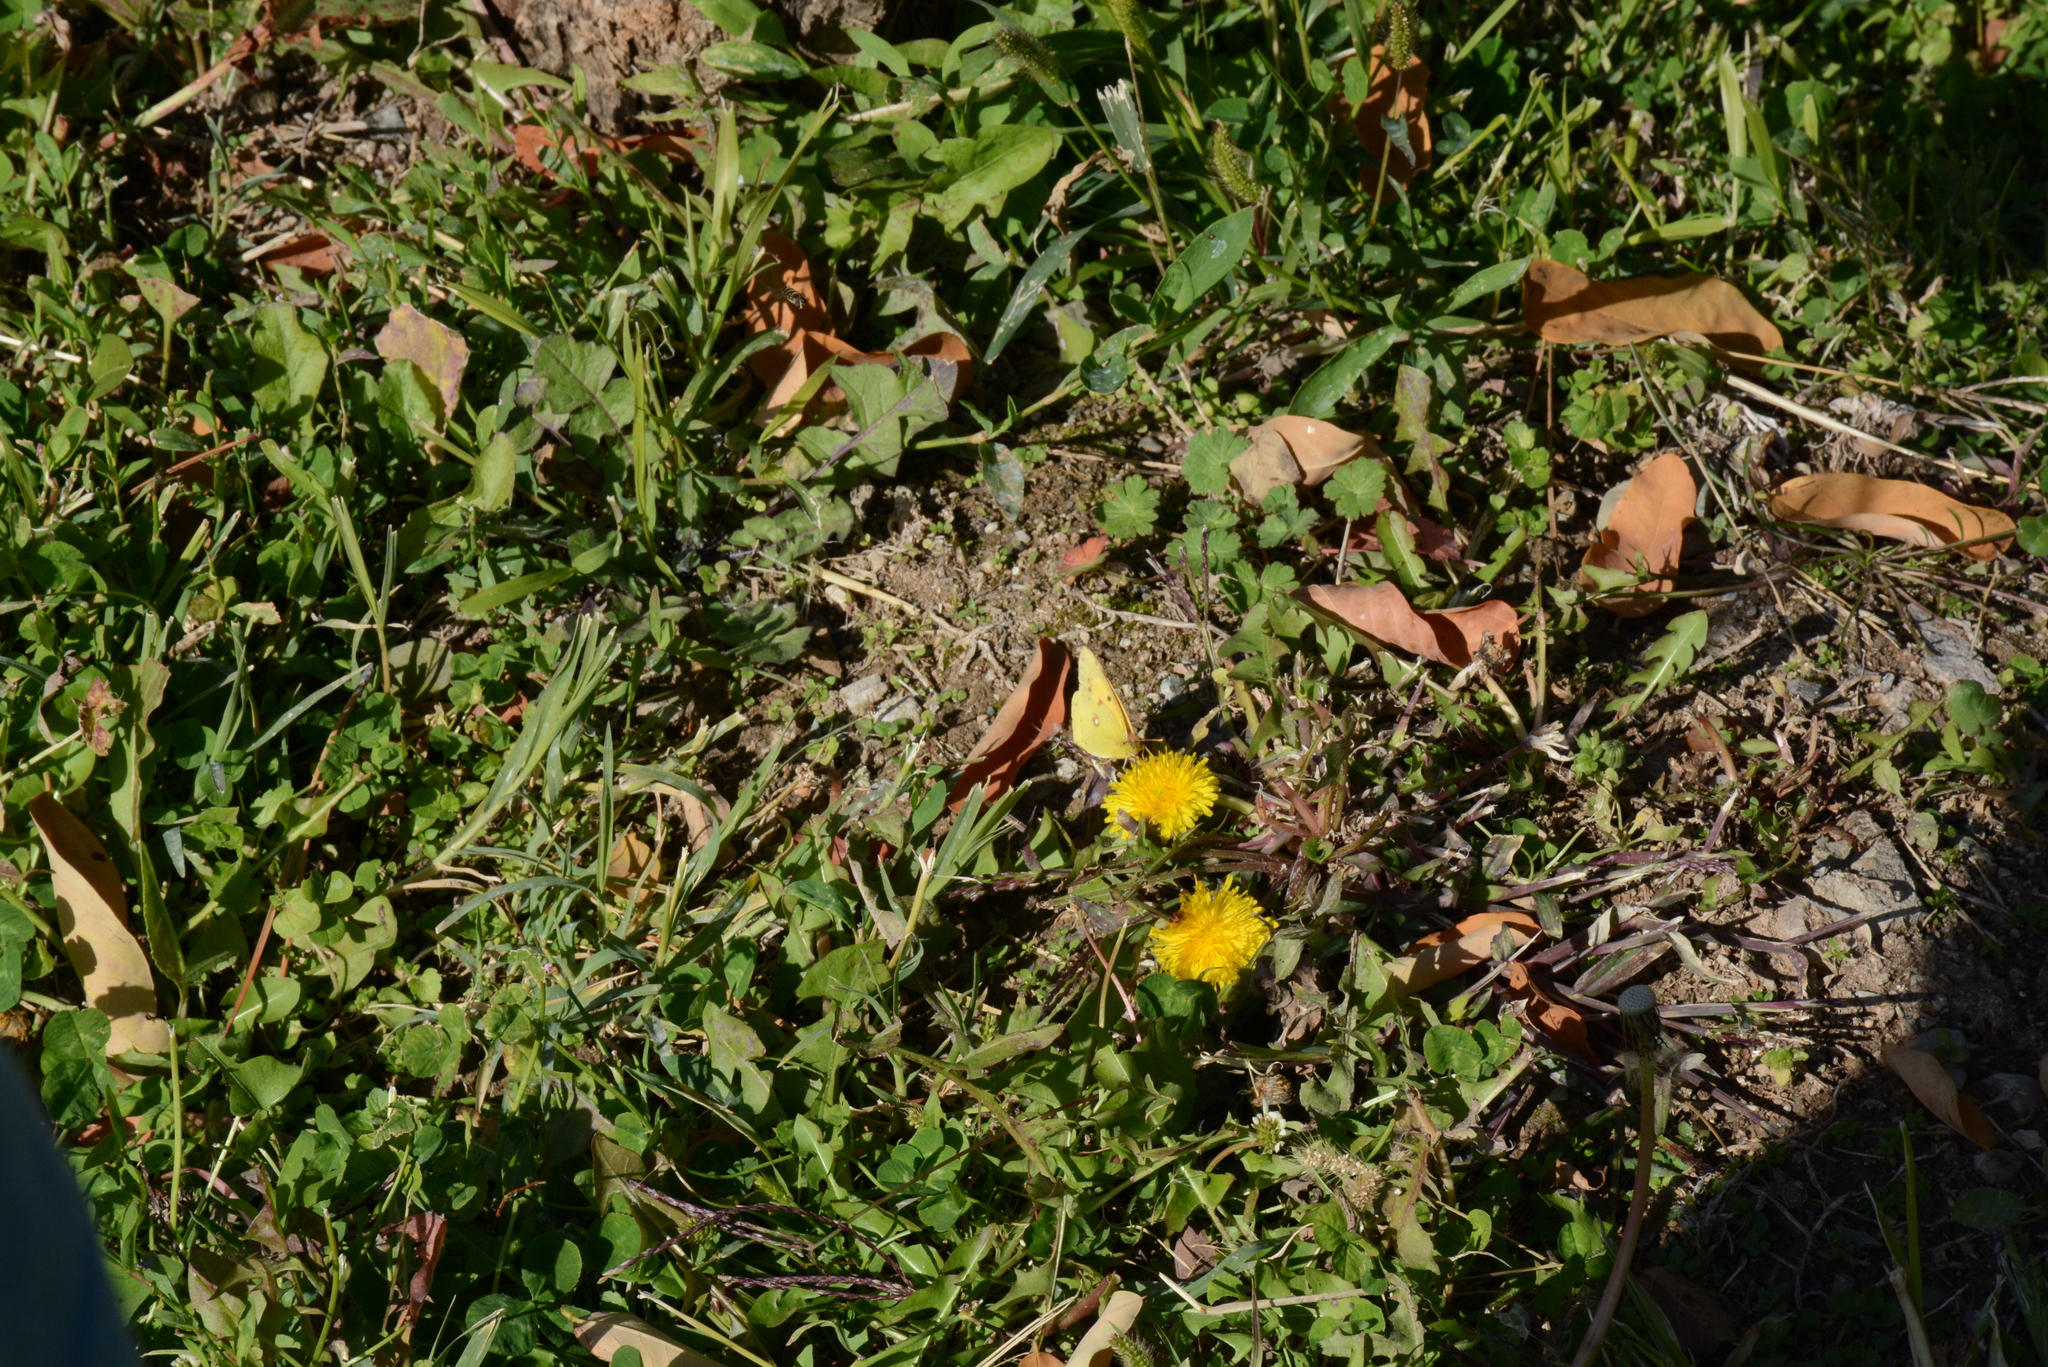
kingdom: Animalia
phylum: Arthropoda
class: Insecta
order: Lepidoptera
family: Pieridae
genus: Colias
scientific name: Colias croceus
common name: Clouded yellow
